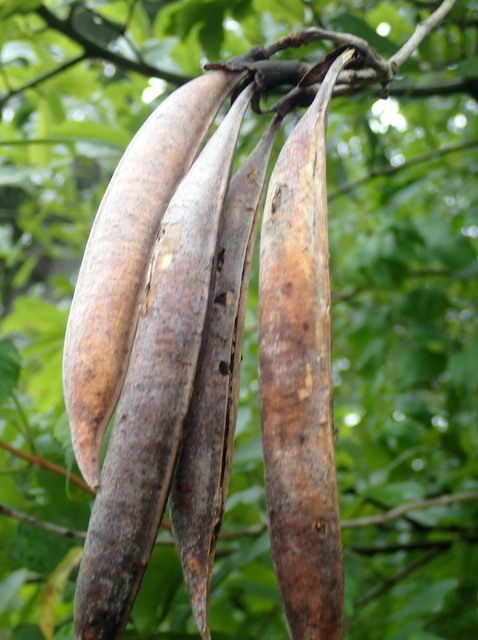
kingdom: Plantae
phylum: Tracheophyta
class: Magnoliopsida
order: Lamiales
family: Bignoniaceae
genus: Campsis
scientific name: Campsis radicans
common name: Trumpet-creeper
